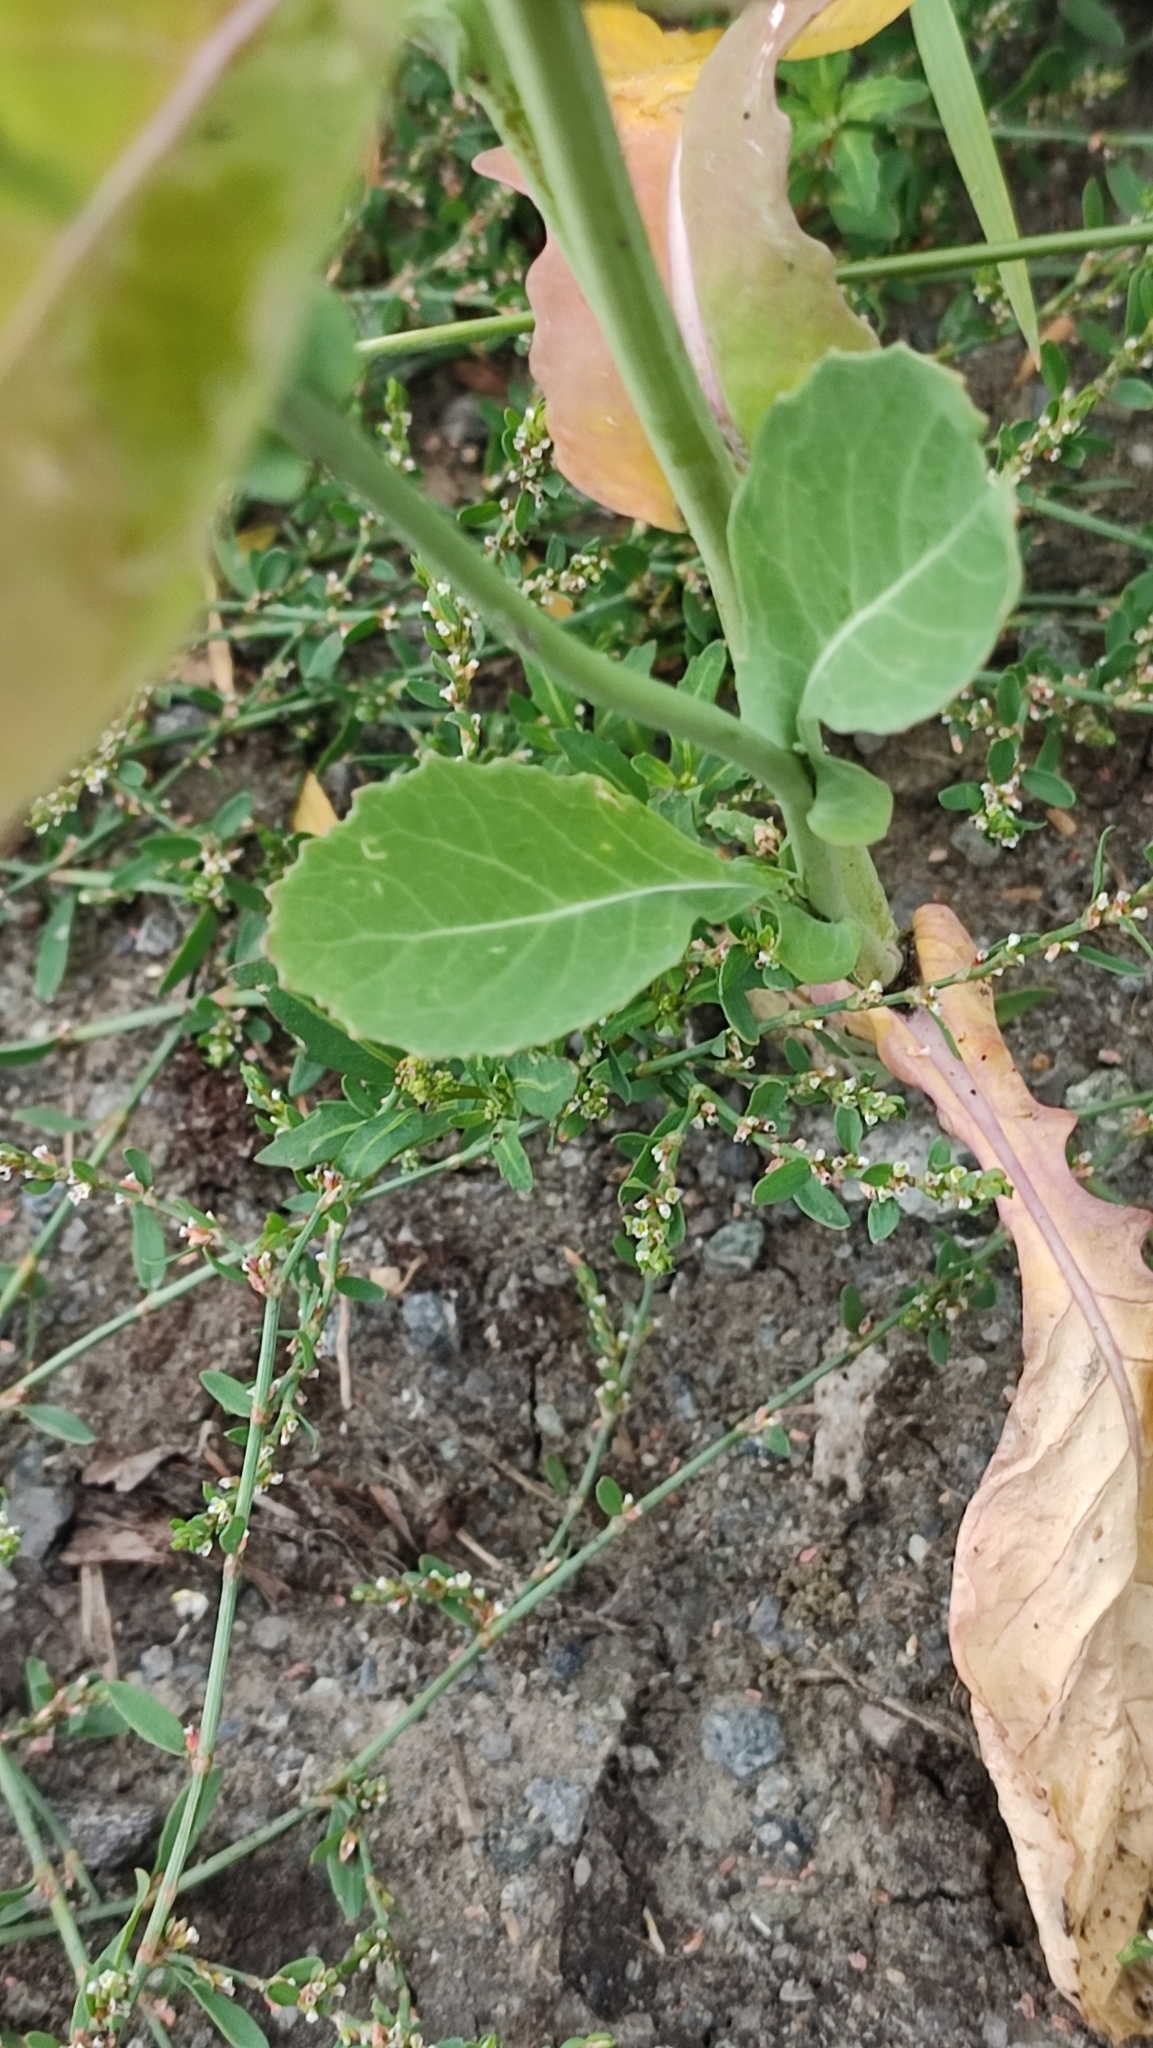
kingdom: Plantae
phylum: Tracheophyta
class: Magnoliopsida
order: Brassicales
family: Brassicaceae
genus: Brassica
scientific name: Brassica napus
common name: Rape
